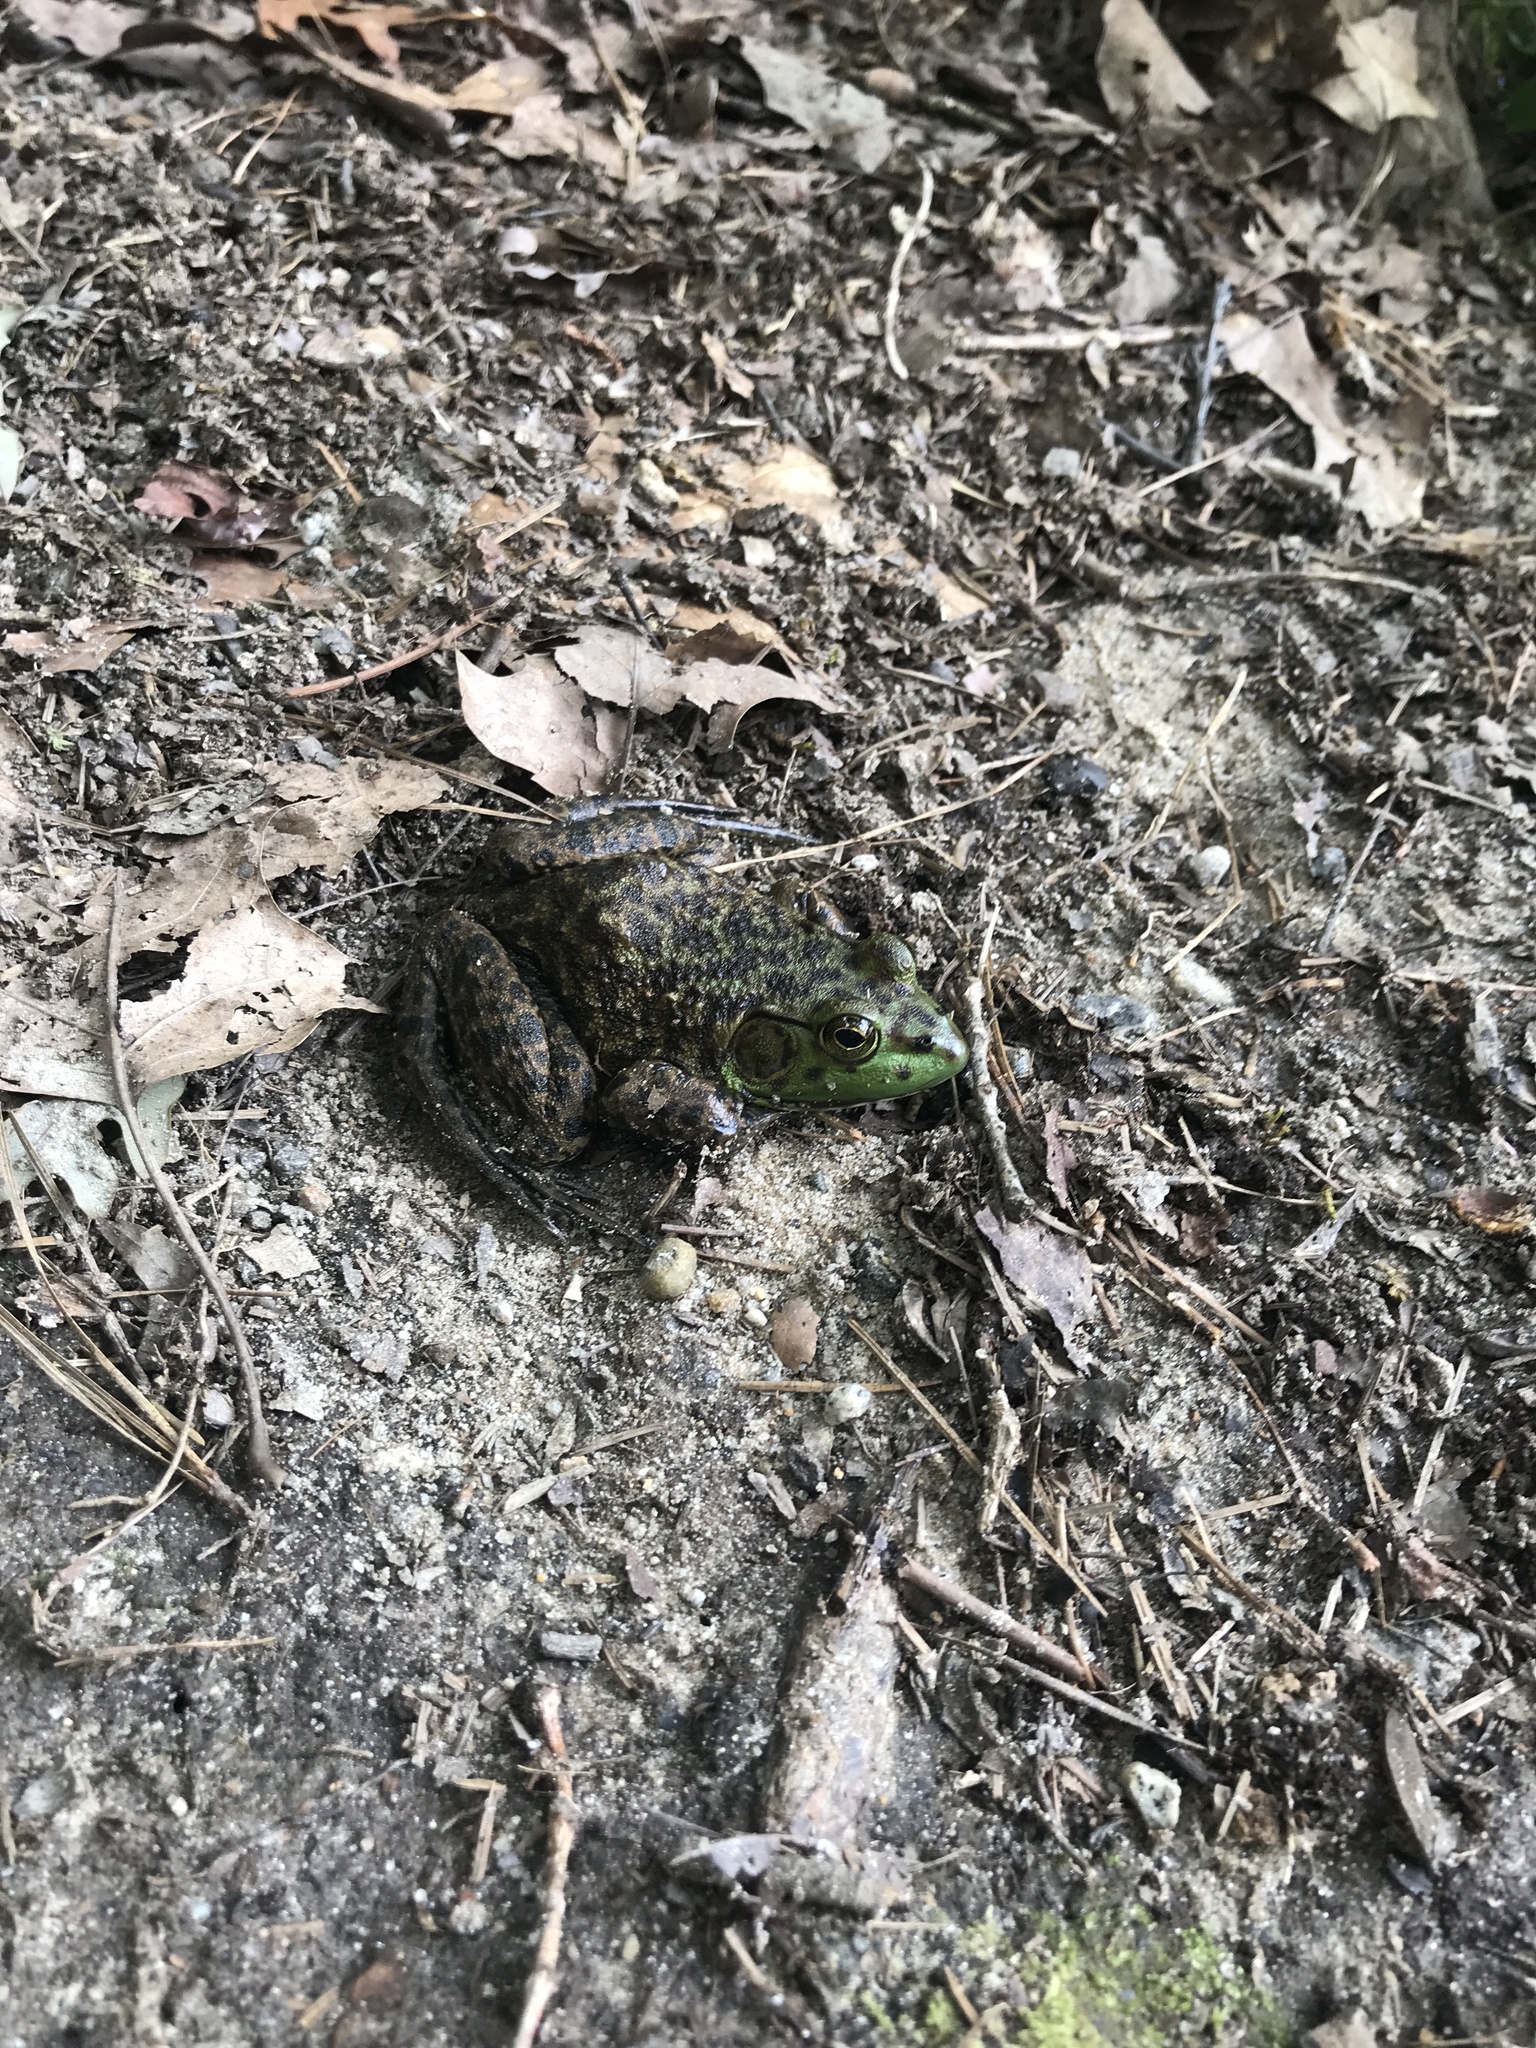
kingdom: Animalia
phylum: Chordata
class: Amphibia
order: Anura
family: Ranidae
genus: Lithobates
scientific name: Lithobates catesbeianus
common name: American bullfrog
